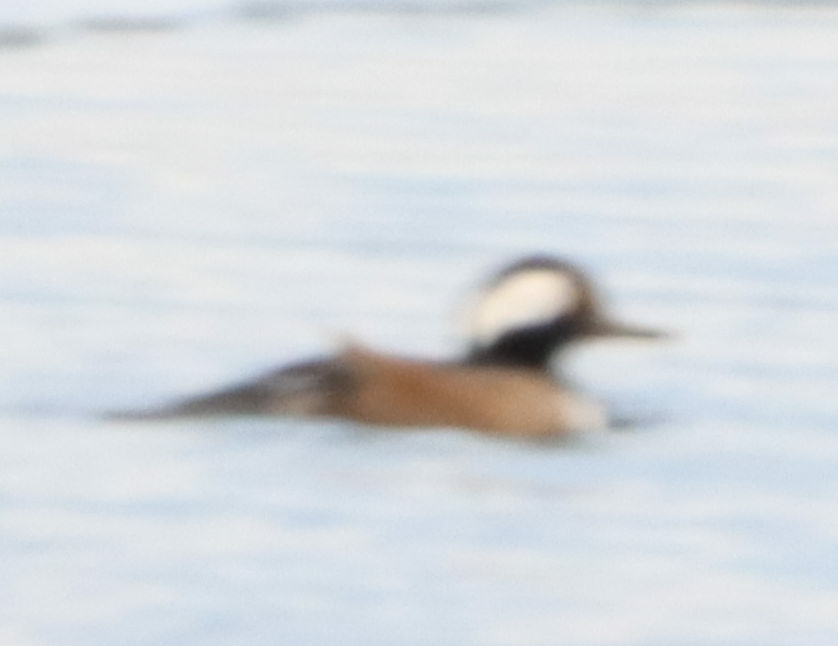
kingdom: Animalia
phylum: Chordata
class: Aves
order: Anseriformes
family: Anatidae
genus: Lophodytes
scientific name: Lophodytes cucullatus
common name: Hooded merganser
